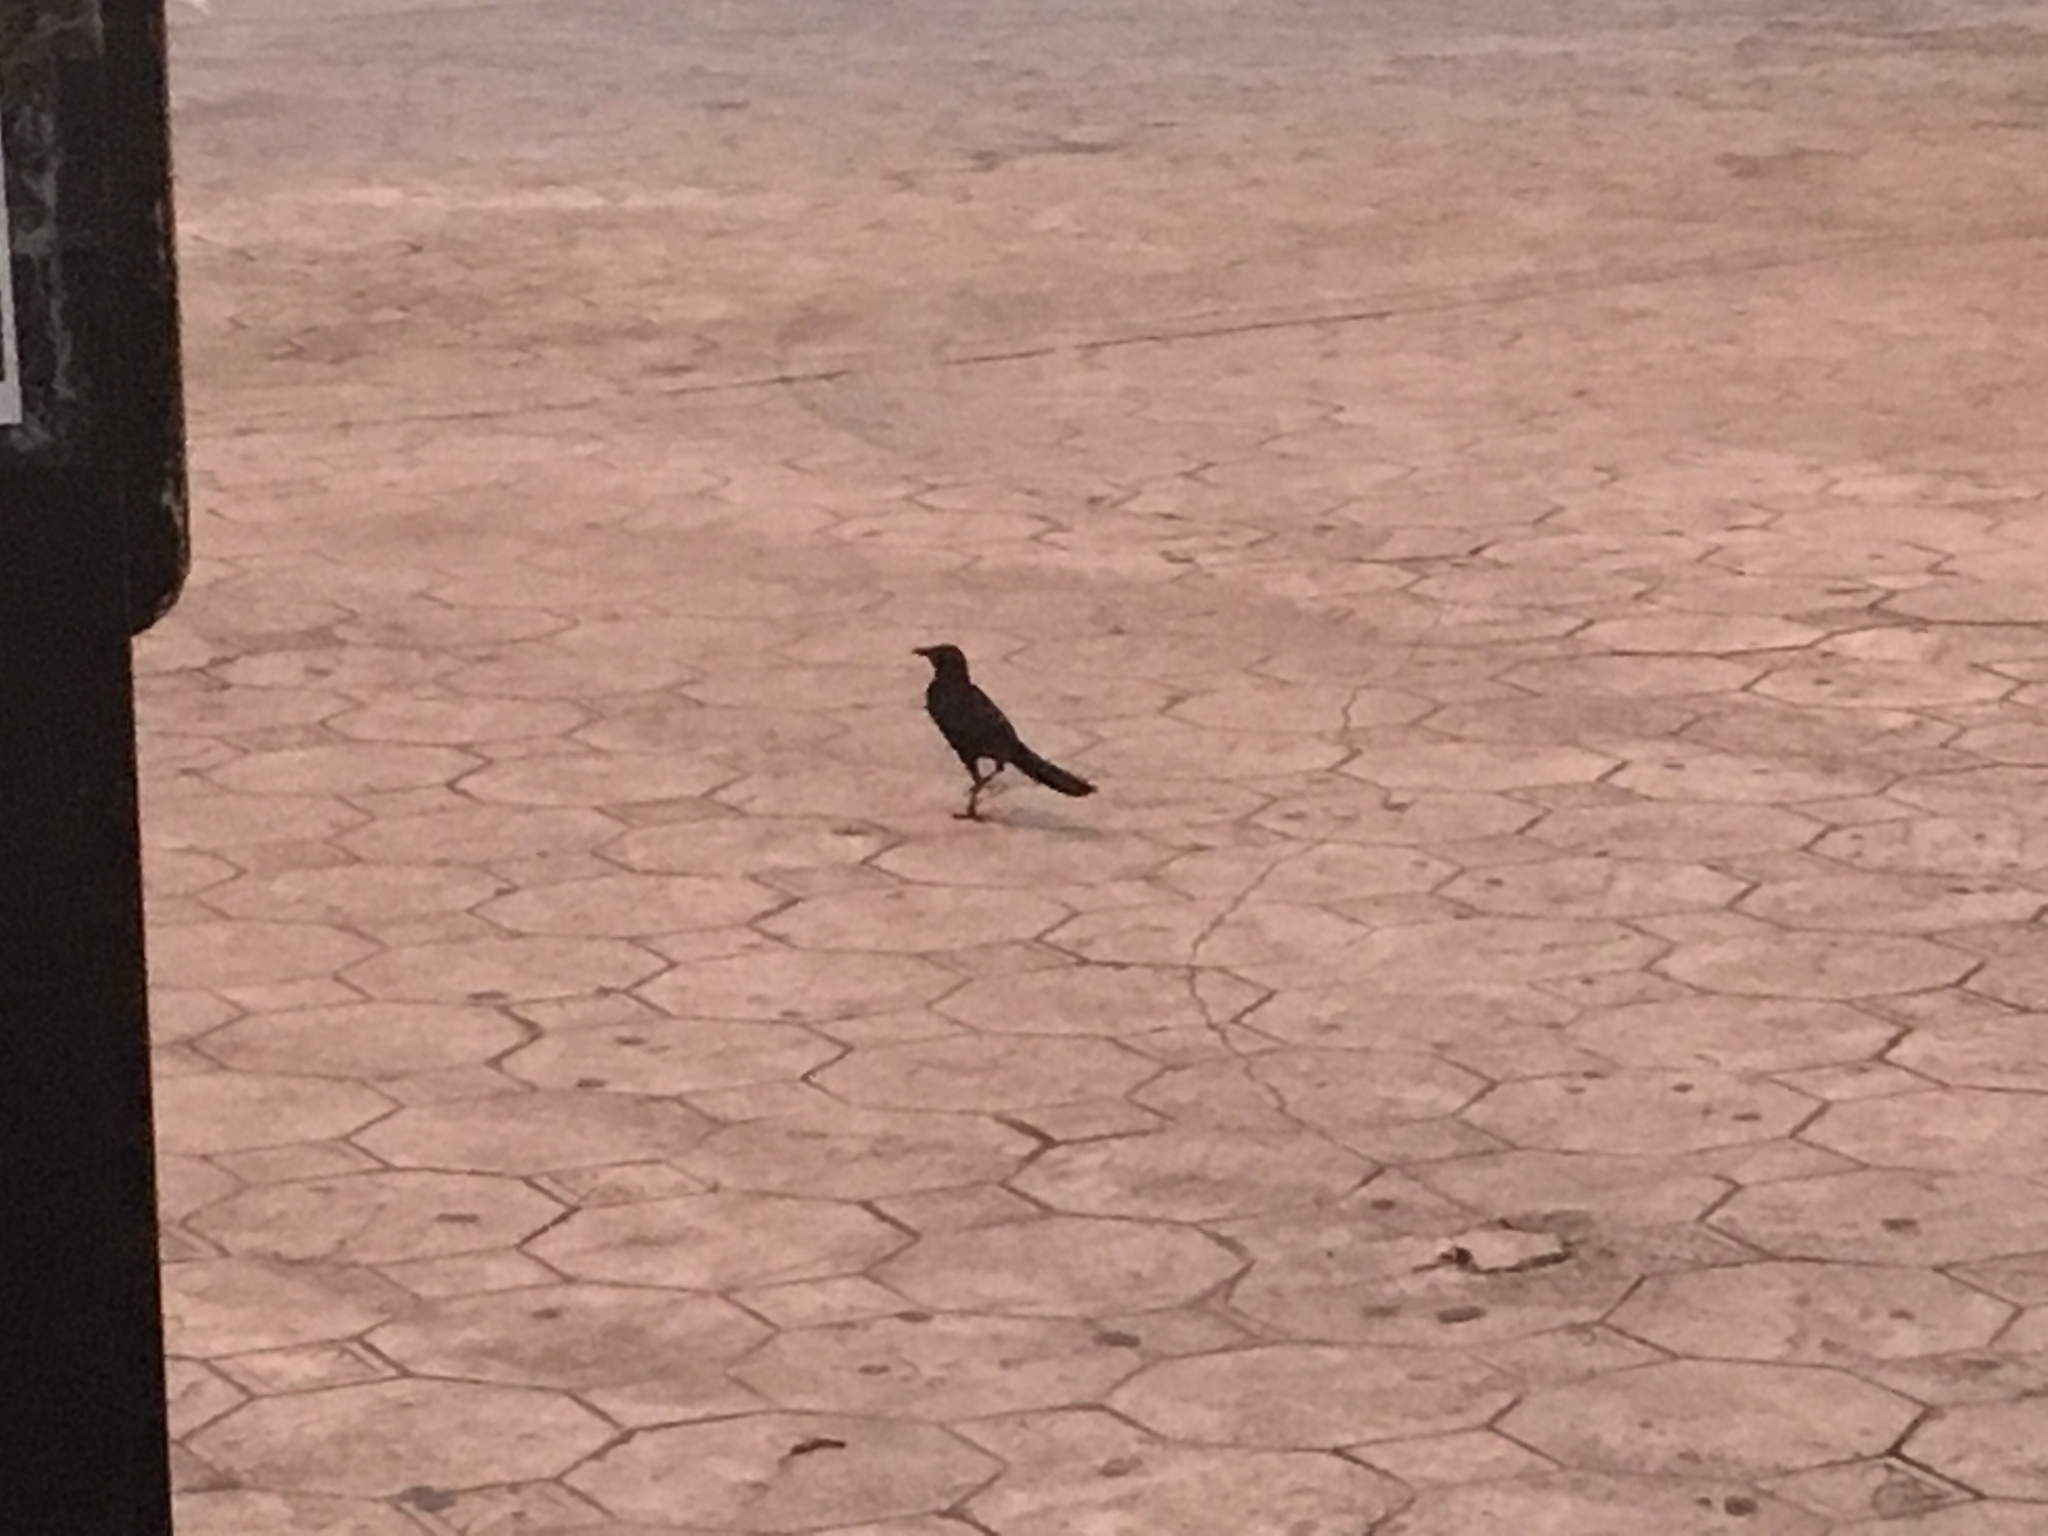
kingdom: Animalia
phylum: Chordata
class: Aves
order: Passeriformes
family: Icteridae
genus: Quiscalus
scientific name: Quiscalus mexicanus
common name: Great-tailed grackle
